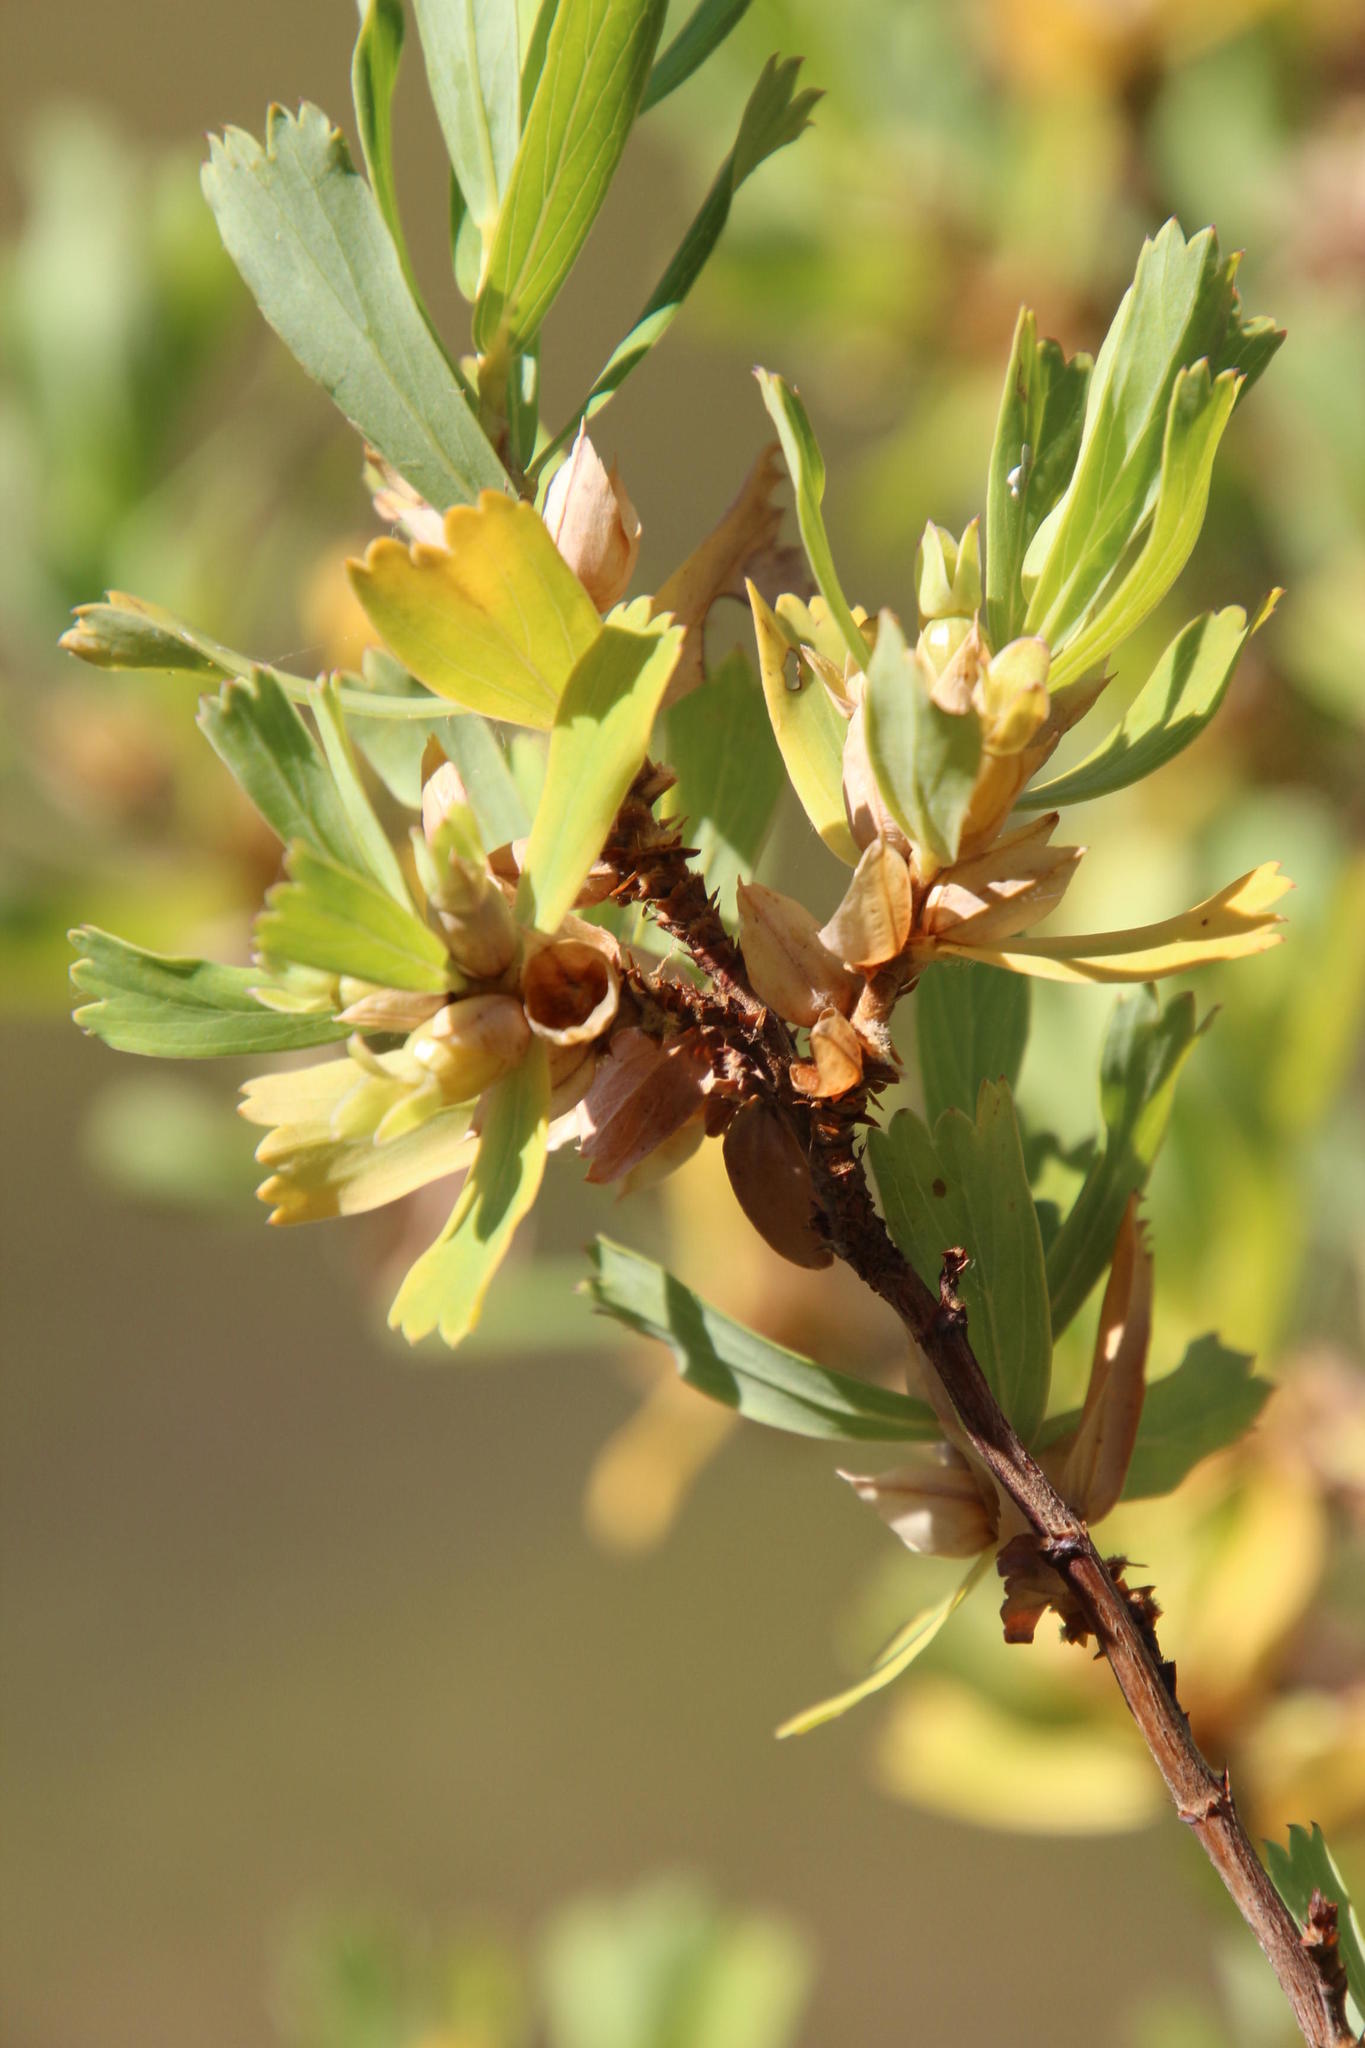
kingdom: Plantae
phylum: Tracheophyta
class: Magnoliopsida
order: Rosales
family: Rosaceae
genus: Cliffortia
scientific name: Cliffortia cuneata
